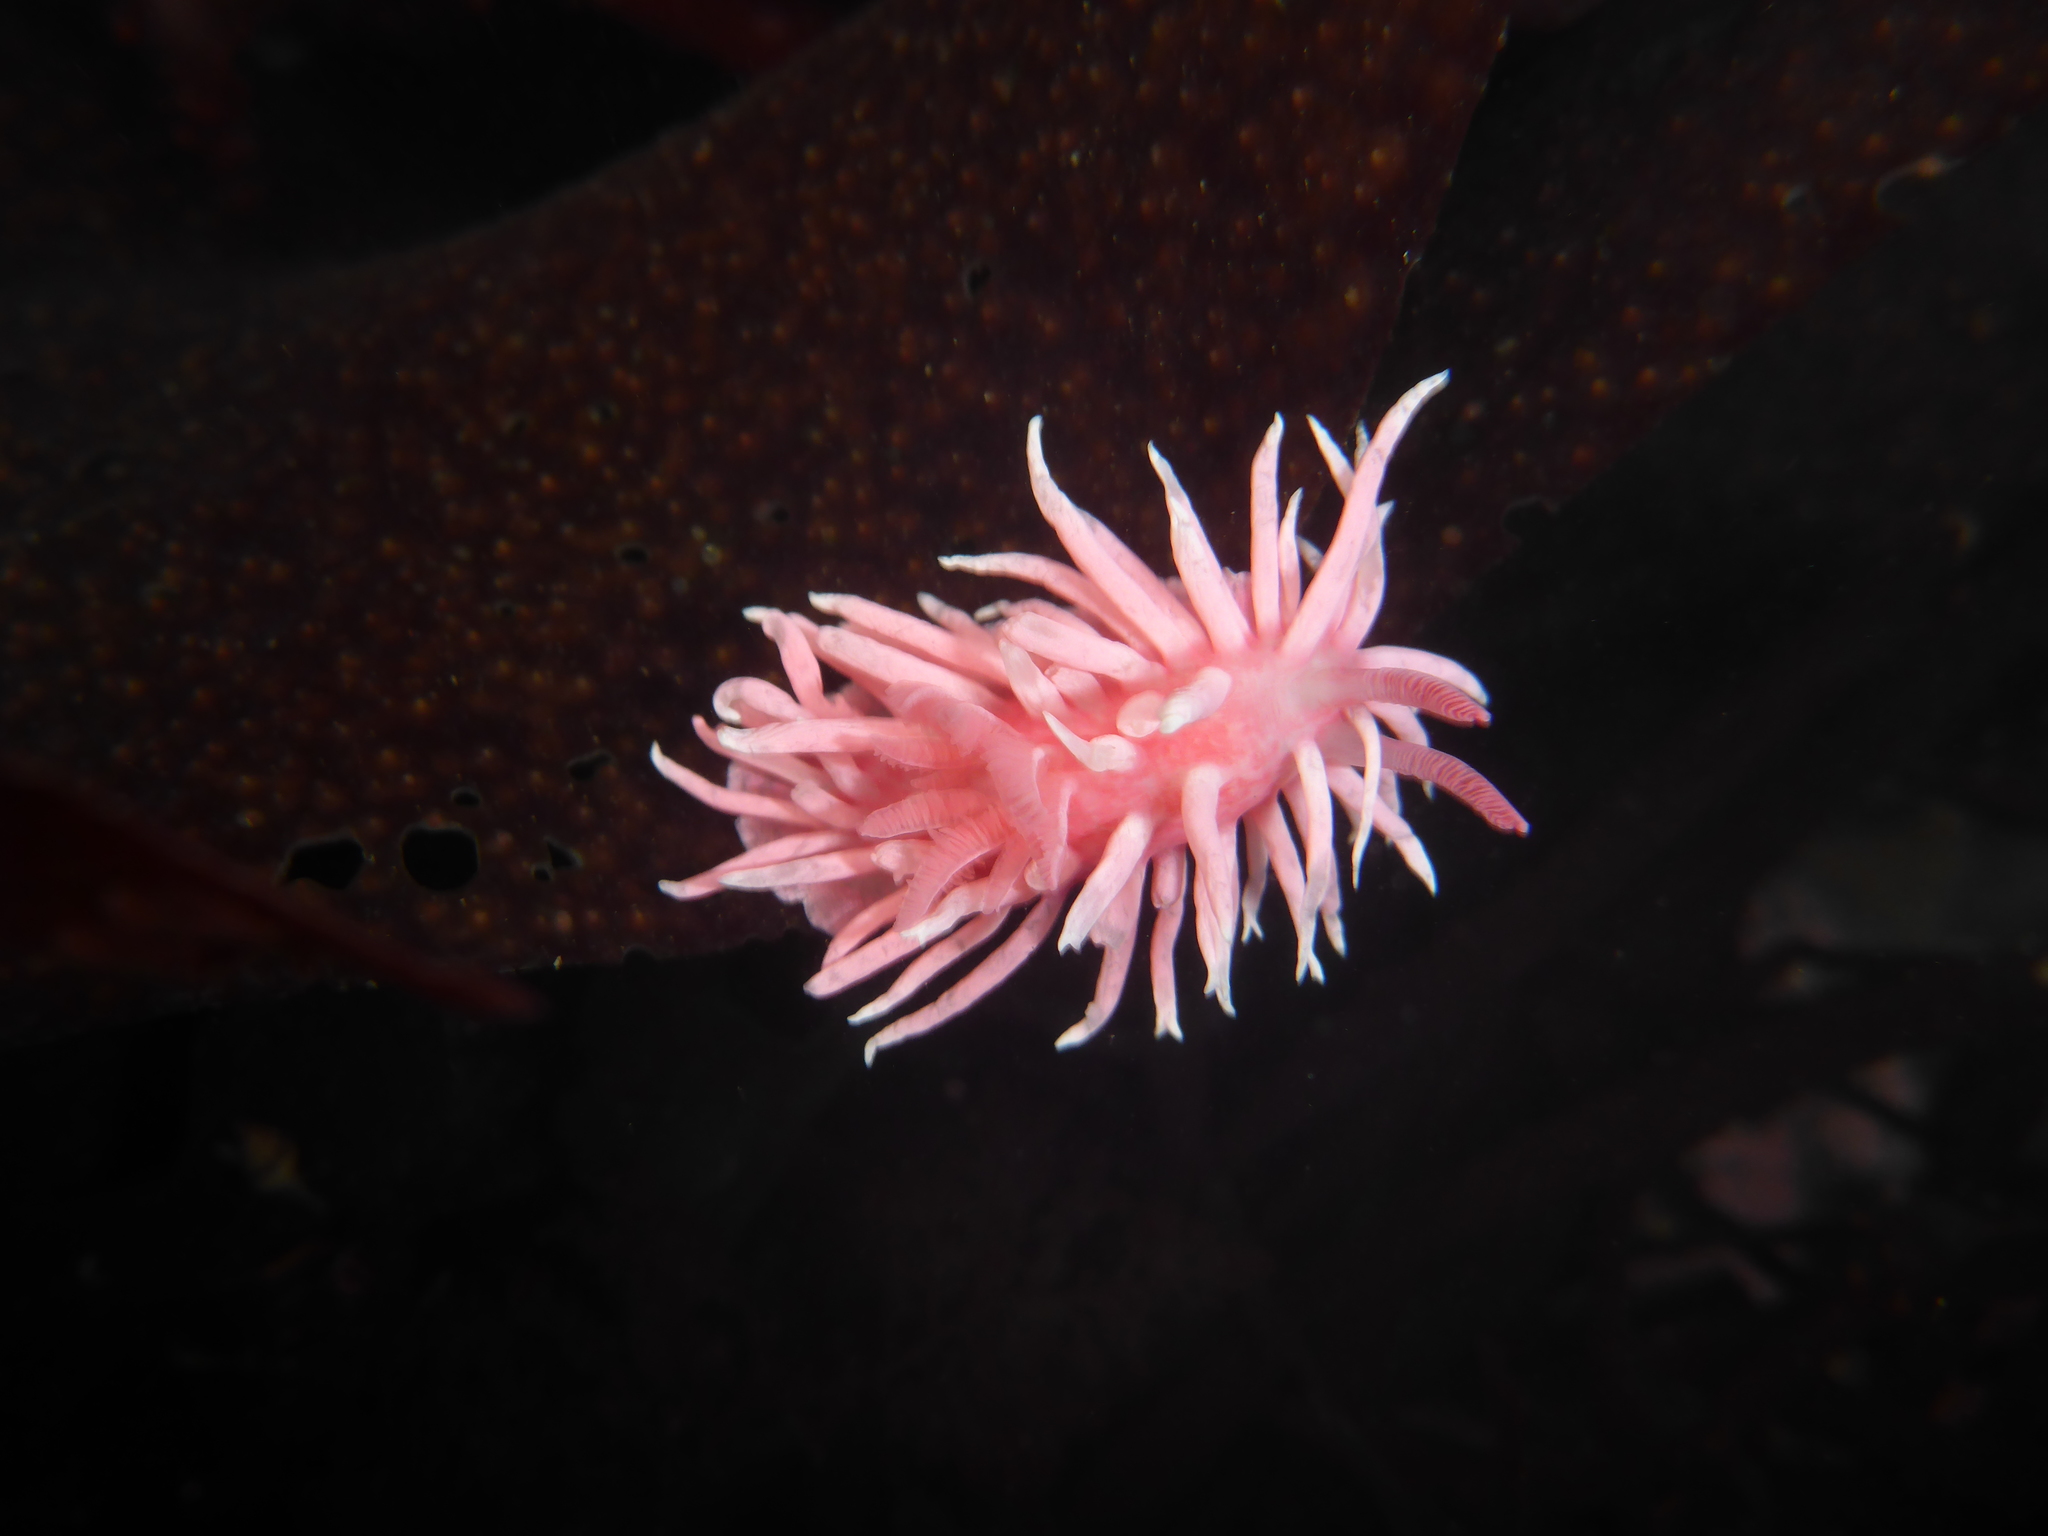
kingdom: Animalia
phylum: Mollusca
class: Gastropoda
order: Nudibranchia
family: Goniodorididae
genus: Okenia
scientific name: Okenia
